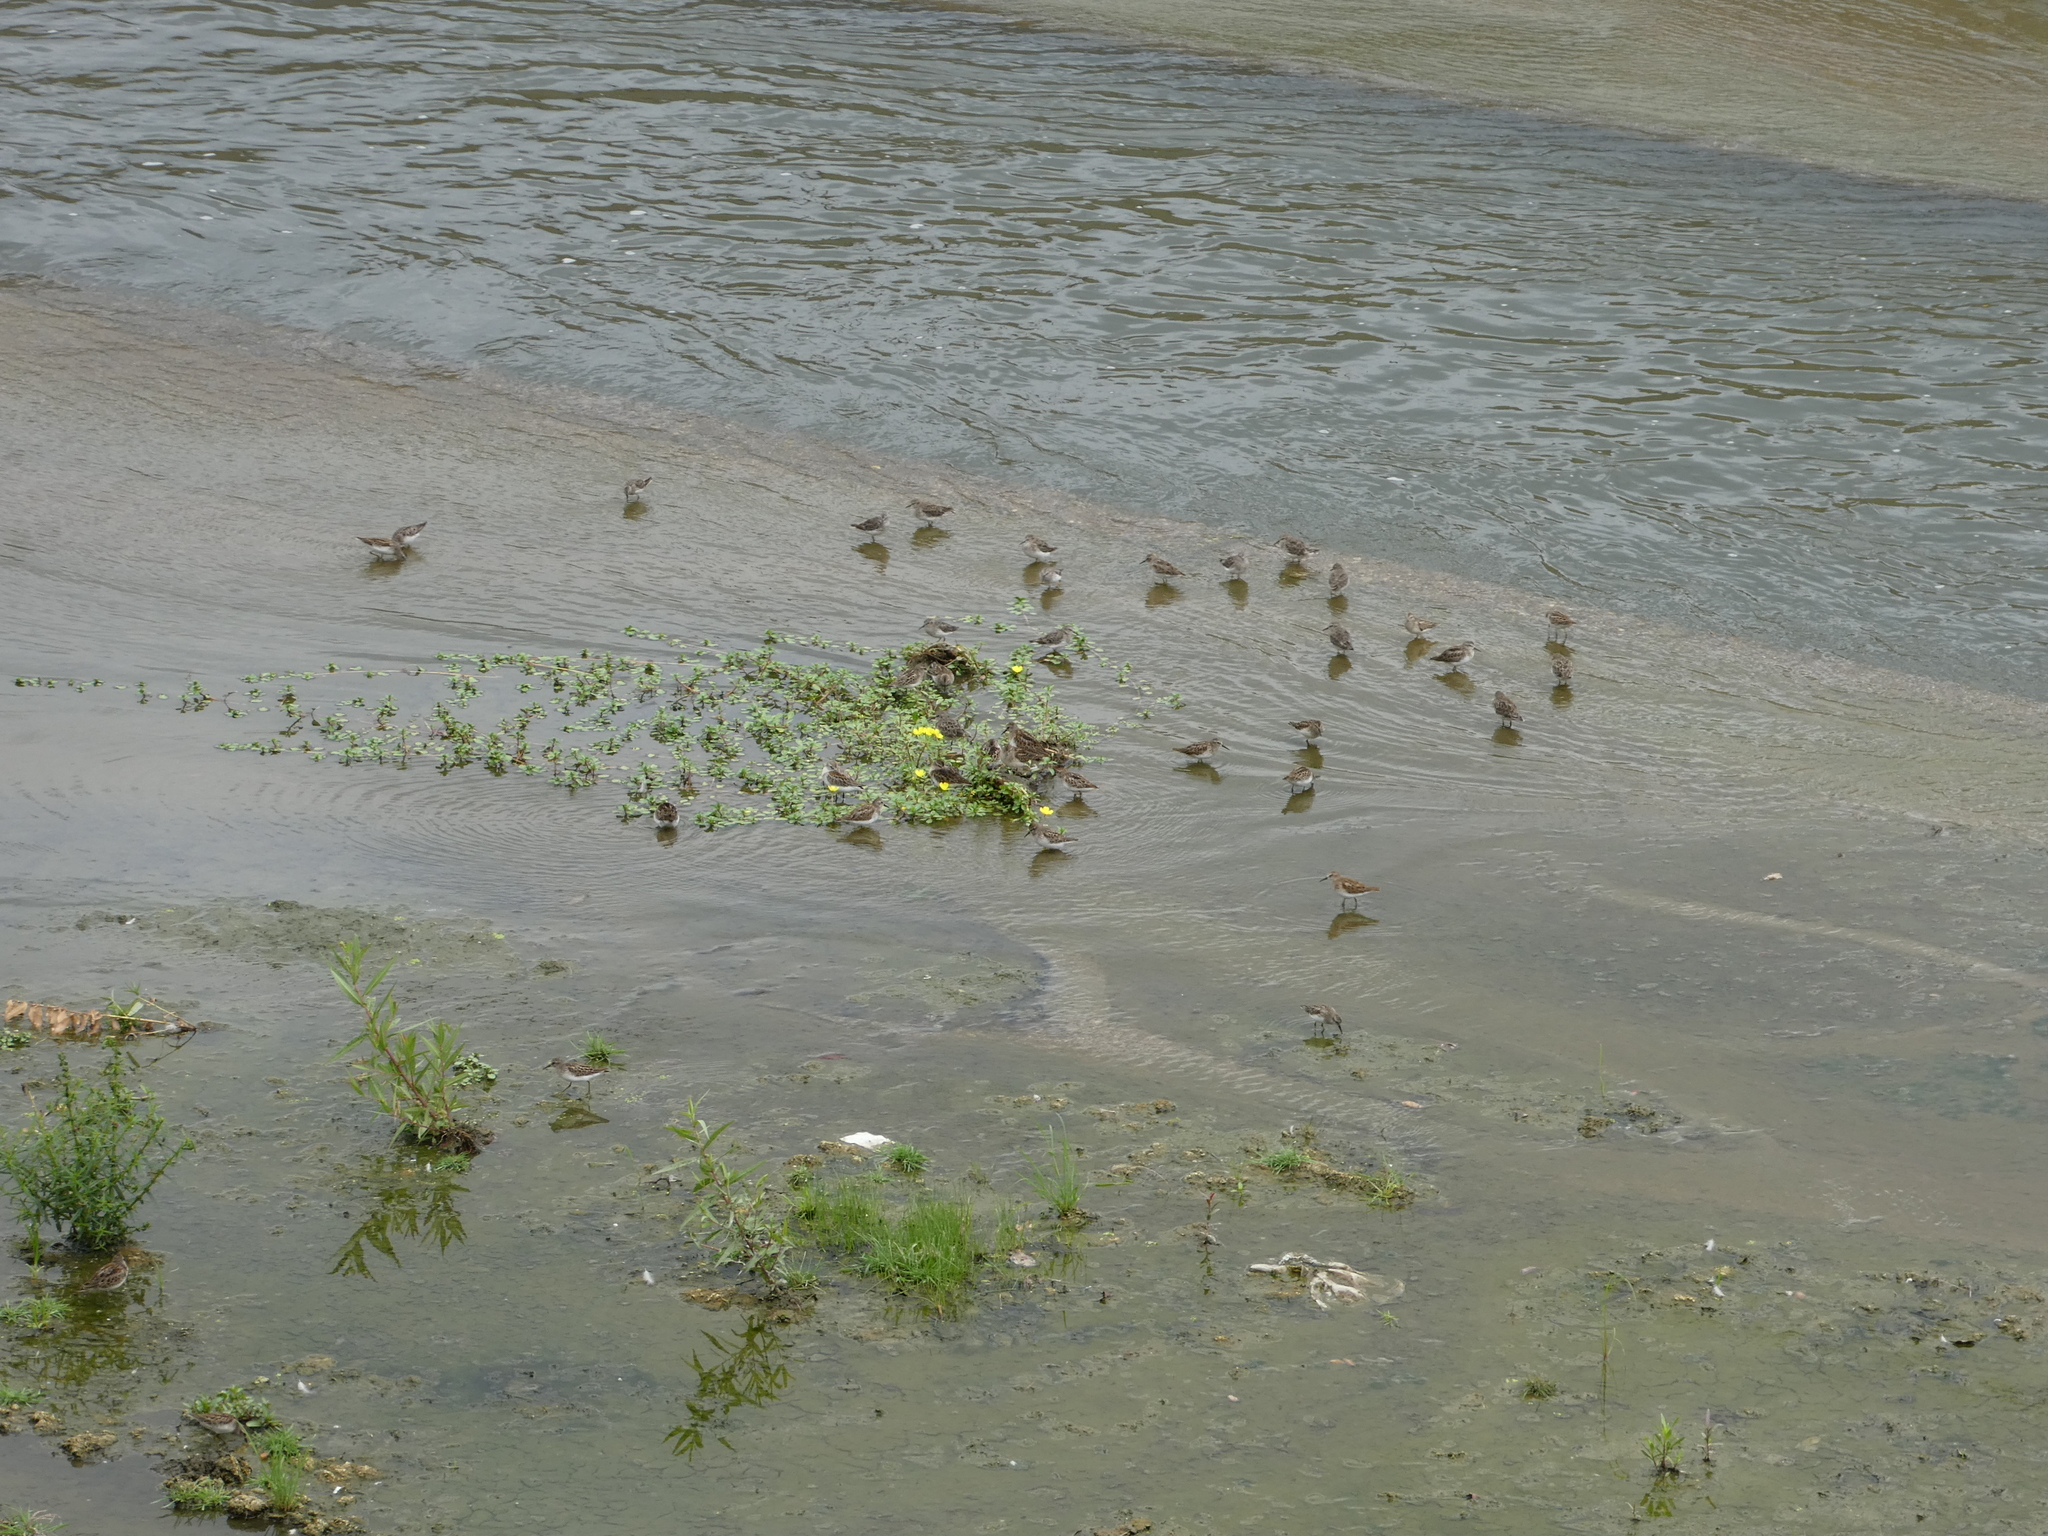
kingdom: Animalia
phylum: Chordata
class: Aves
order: Charadriiformes
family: Scolopacidae
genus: Calidris
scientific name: Calidris minutilla
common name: Least sandpiper
